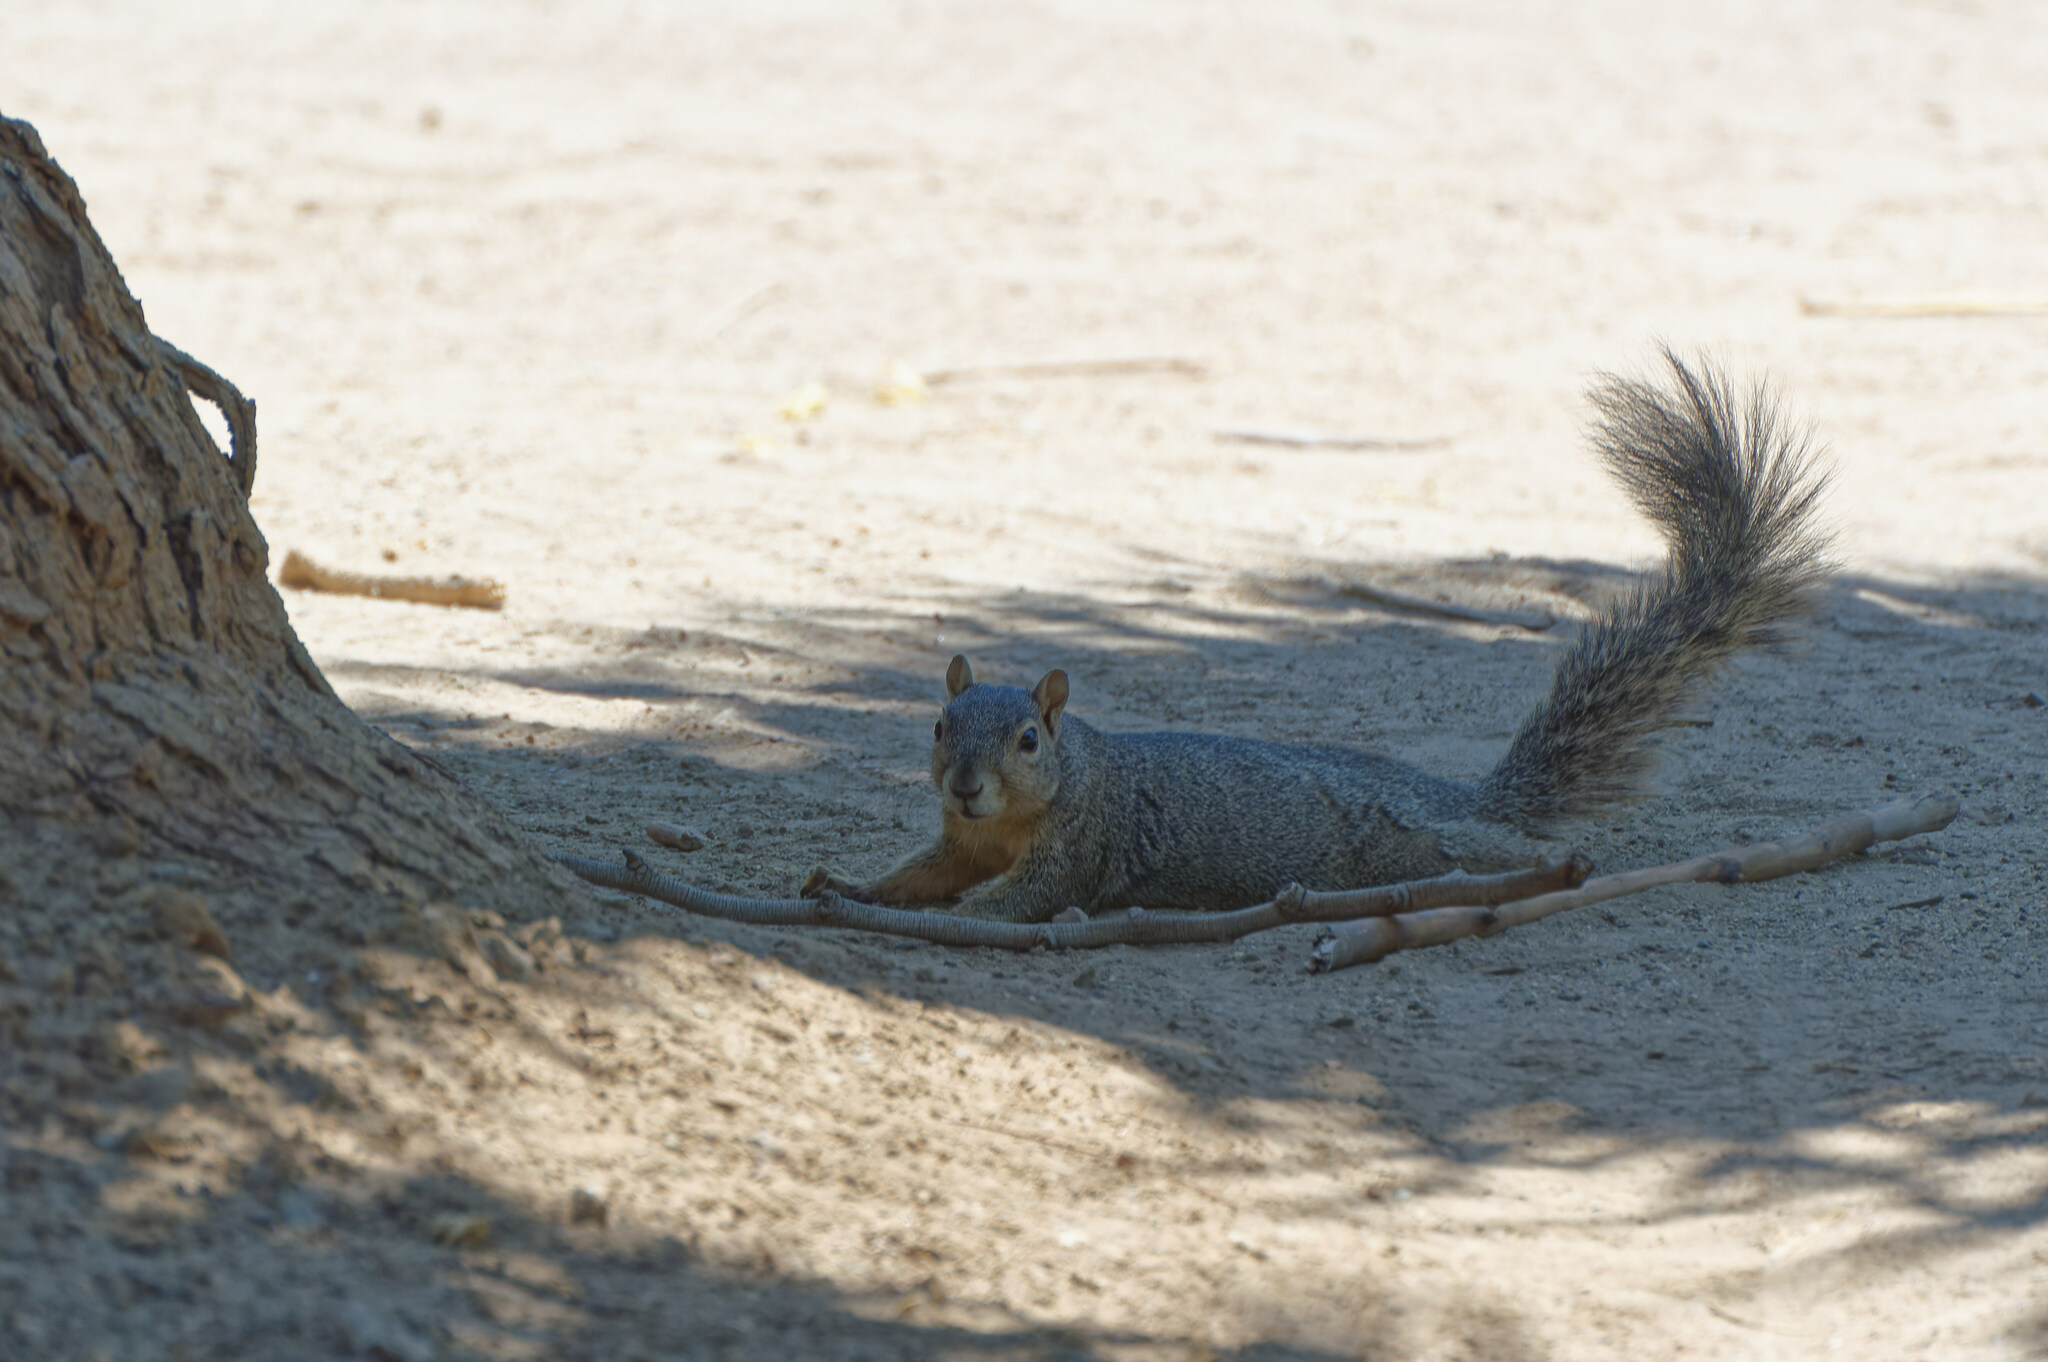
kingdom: Animalia
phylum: Chordata
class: Mammalia
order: Rodentia
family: Sciuridae
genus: Sciurus
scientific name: Sciurus niger
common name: Fox squirrel
